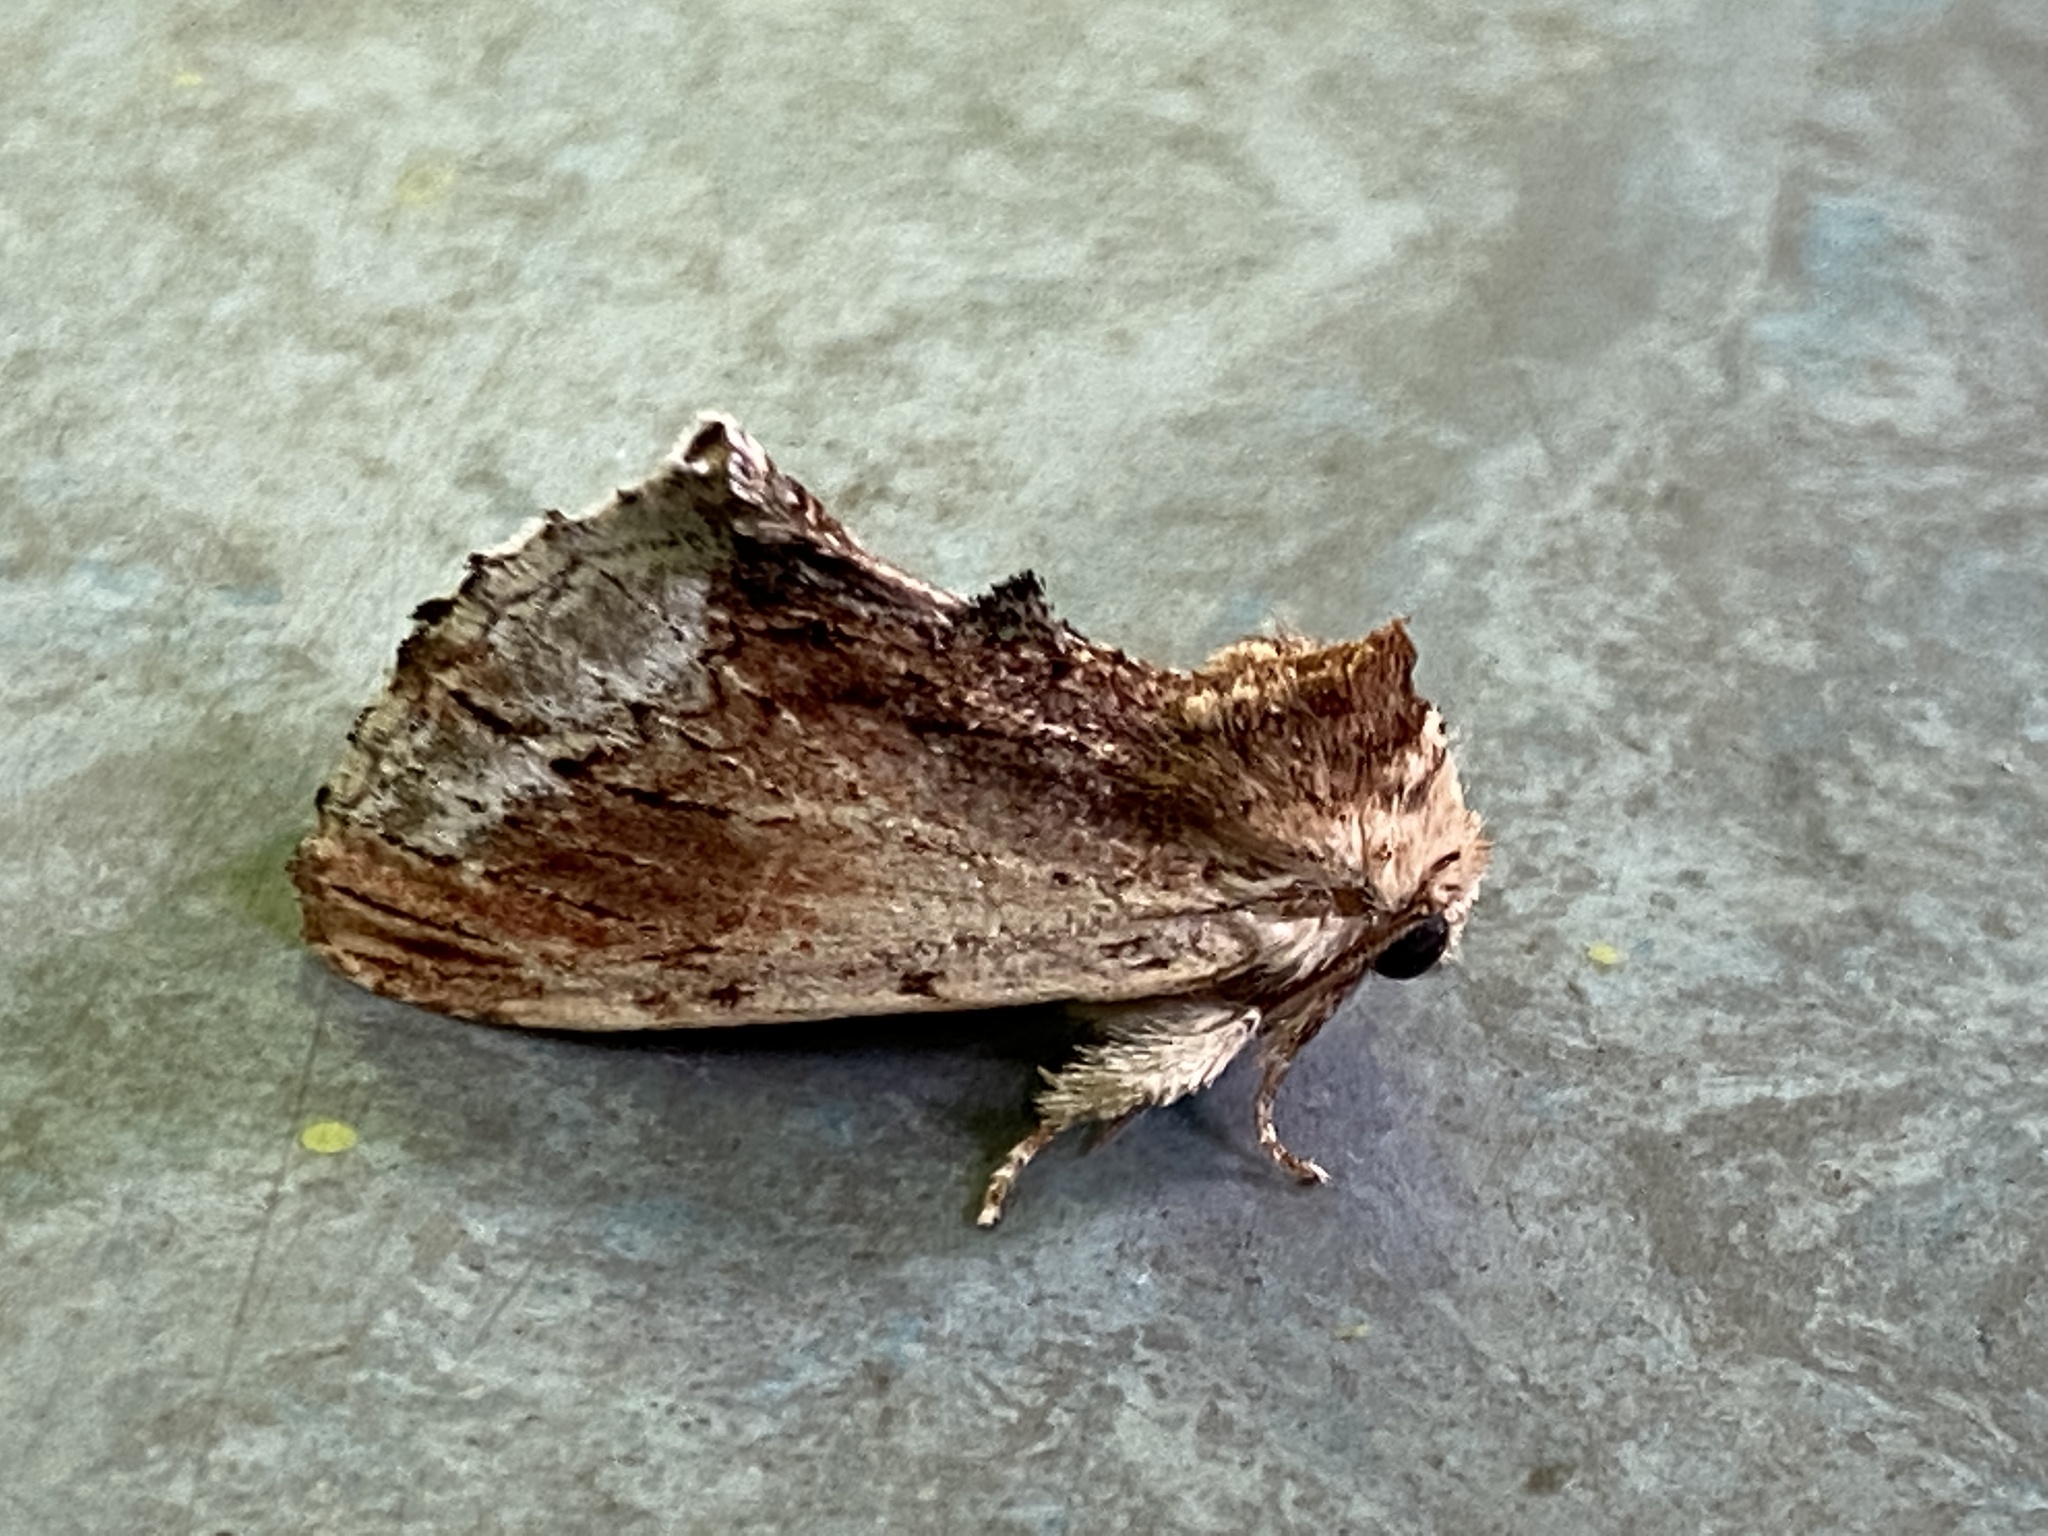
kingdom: Animalia
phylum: Arthropoda
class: Insecta
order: Lepidoptera
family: Notodontidae
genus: Ptilodon
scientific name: Ptilodon cucullina
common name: Maple prominent
